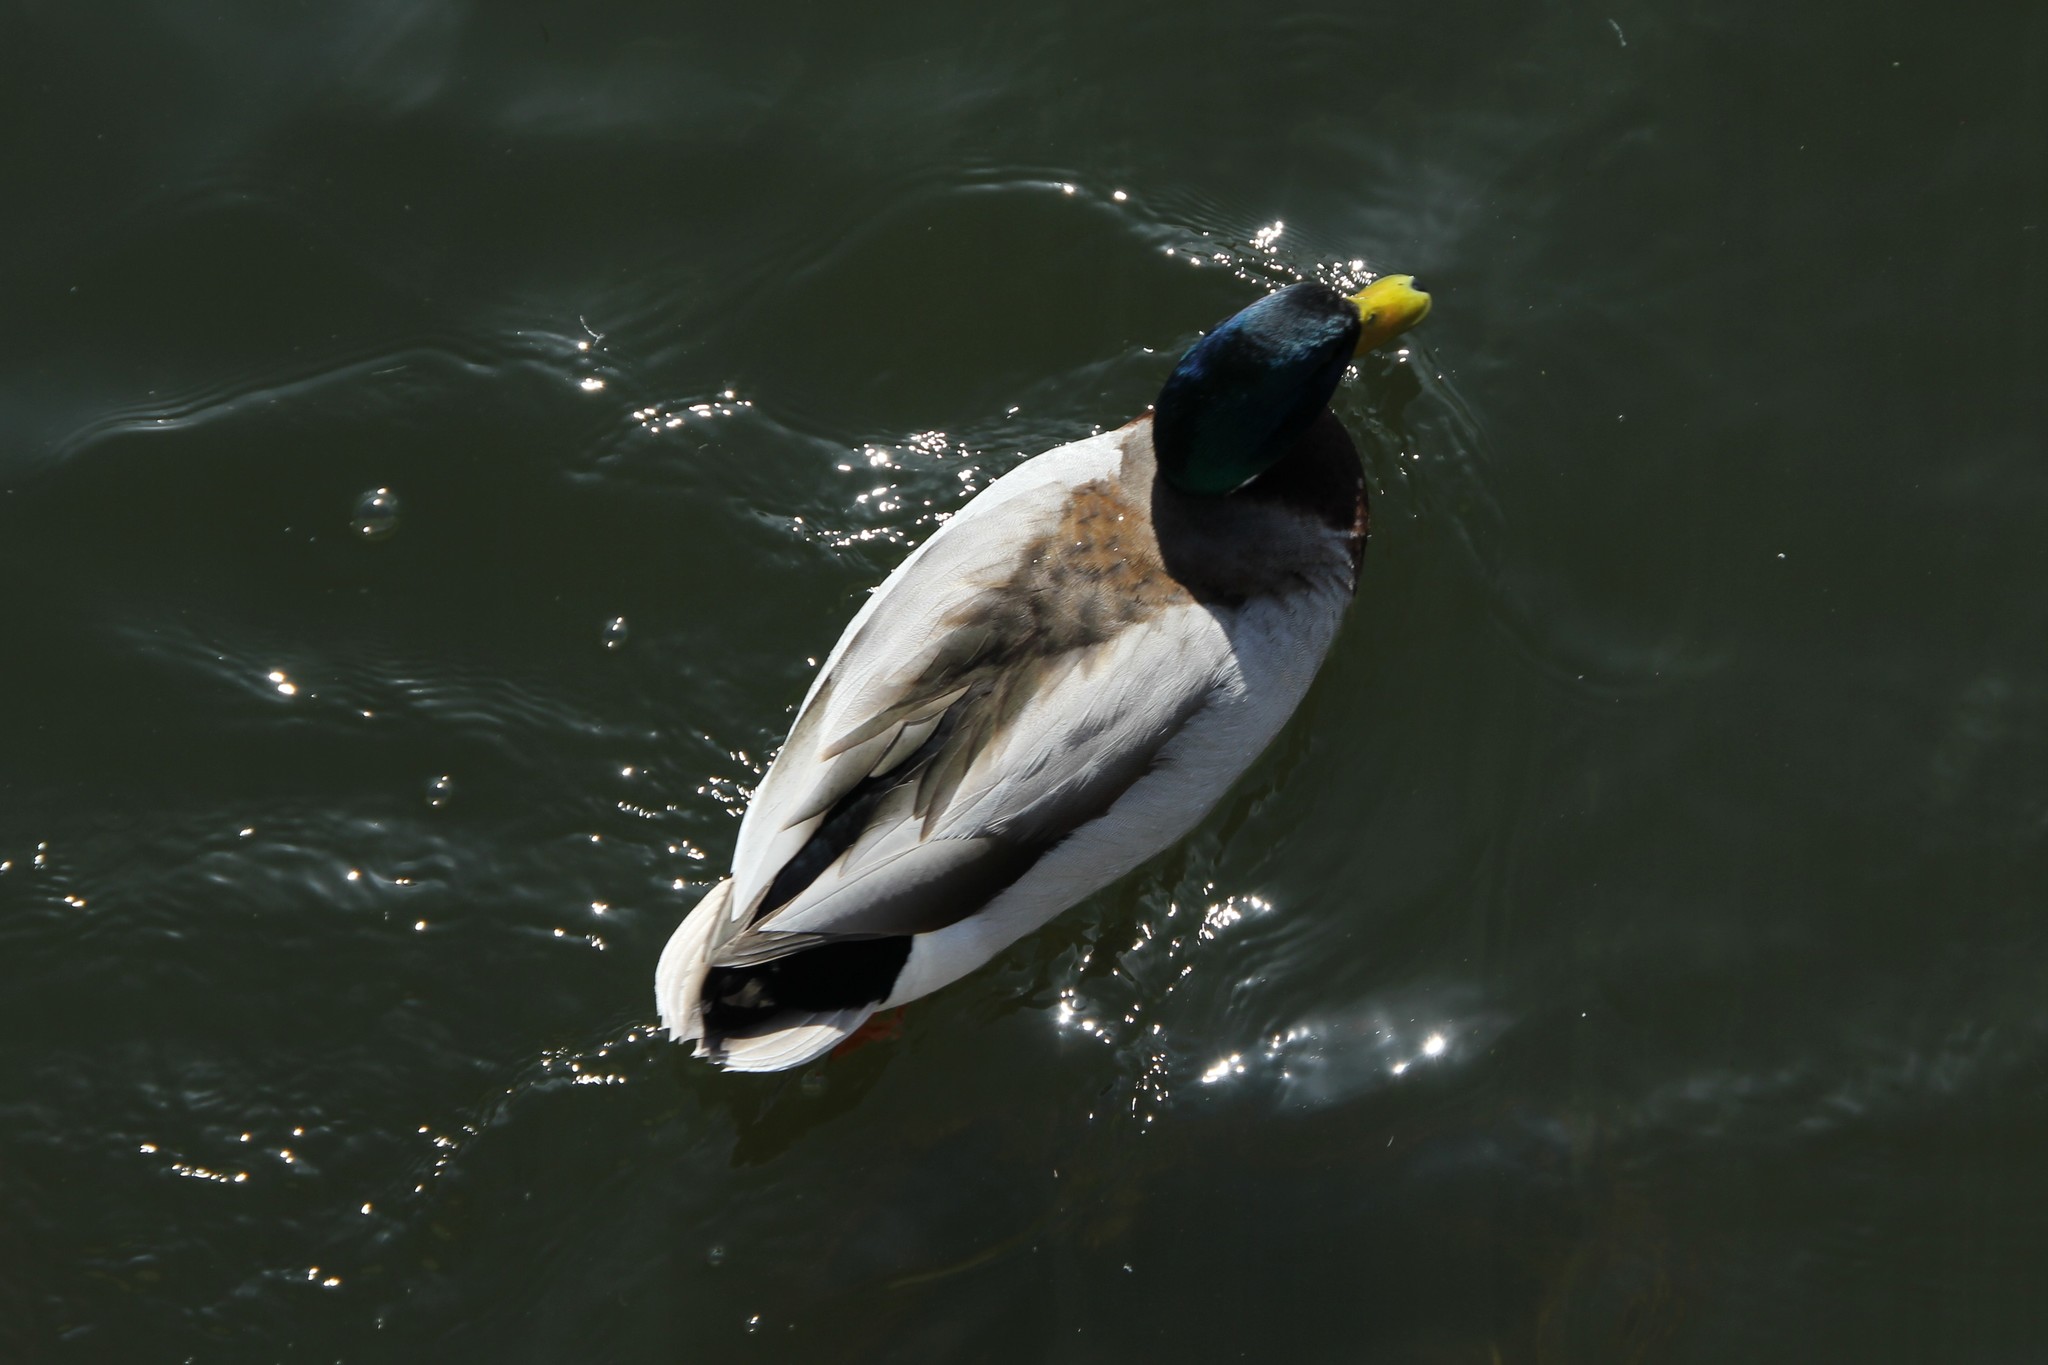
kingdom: Animalia
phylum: Chordata
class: Aves
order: Anseriformes
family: Anatidae
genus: Anas
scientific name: Anas platyrhynchos
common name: Mallard
